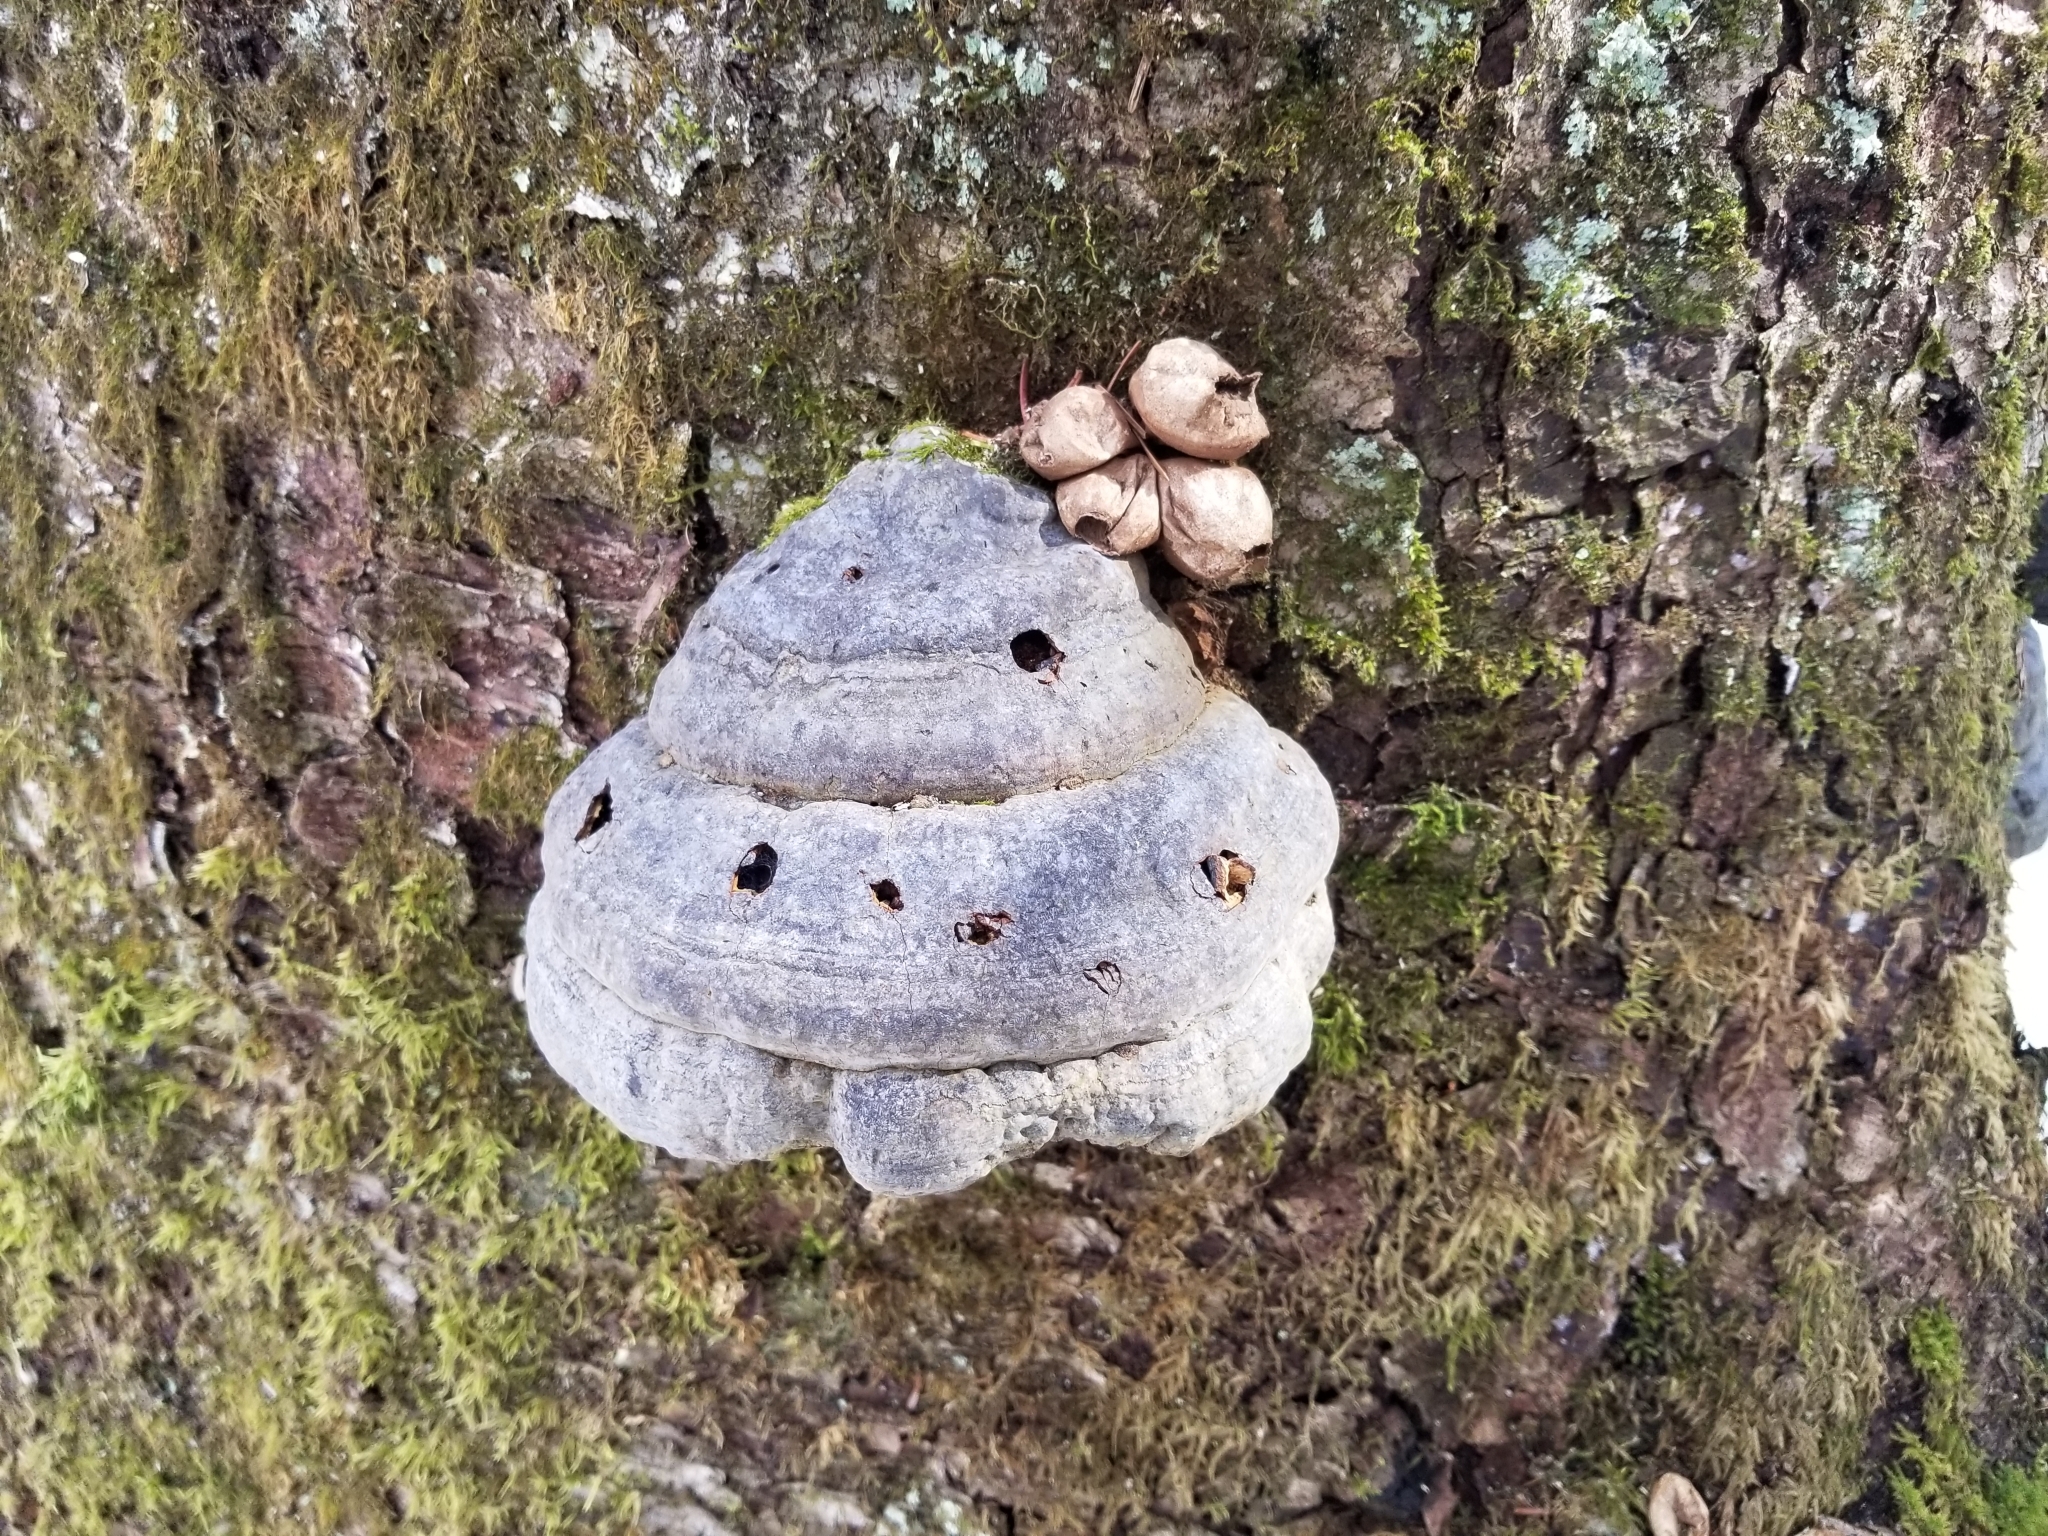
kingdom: Fungi
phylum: Basidiomycota
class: Agaricomycetes
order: Polyporales
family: Polyporaceae
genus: Fomes
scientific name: Fomes fomentarius
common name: Hoof fungus
